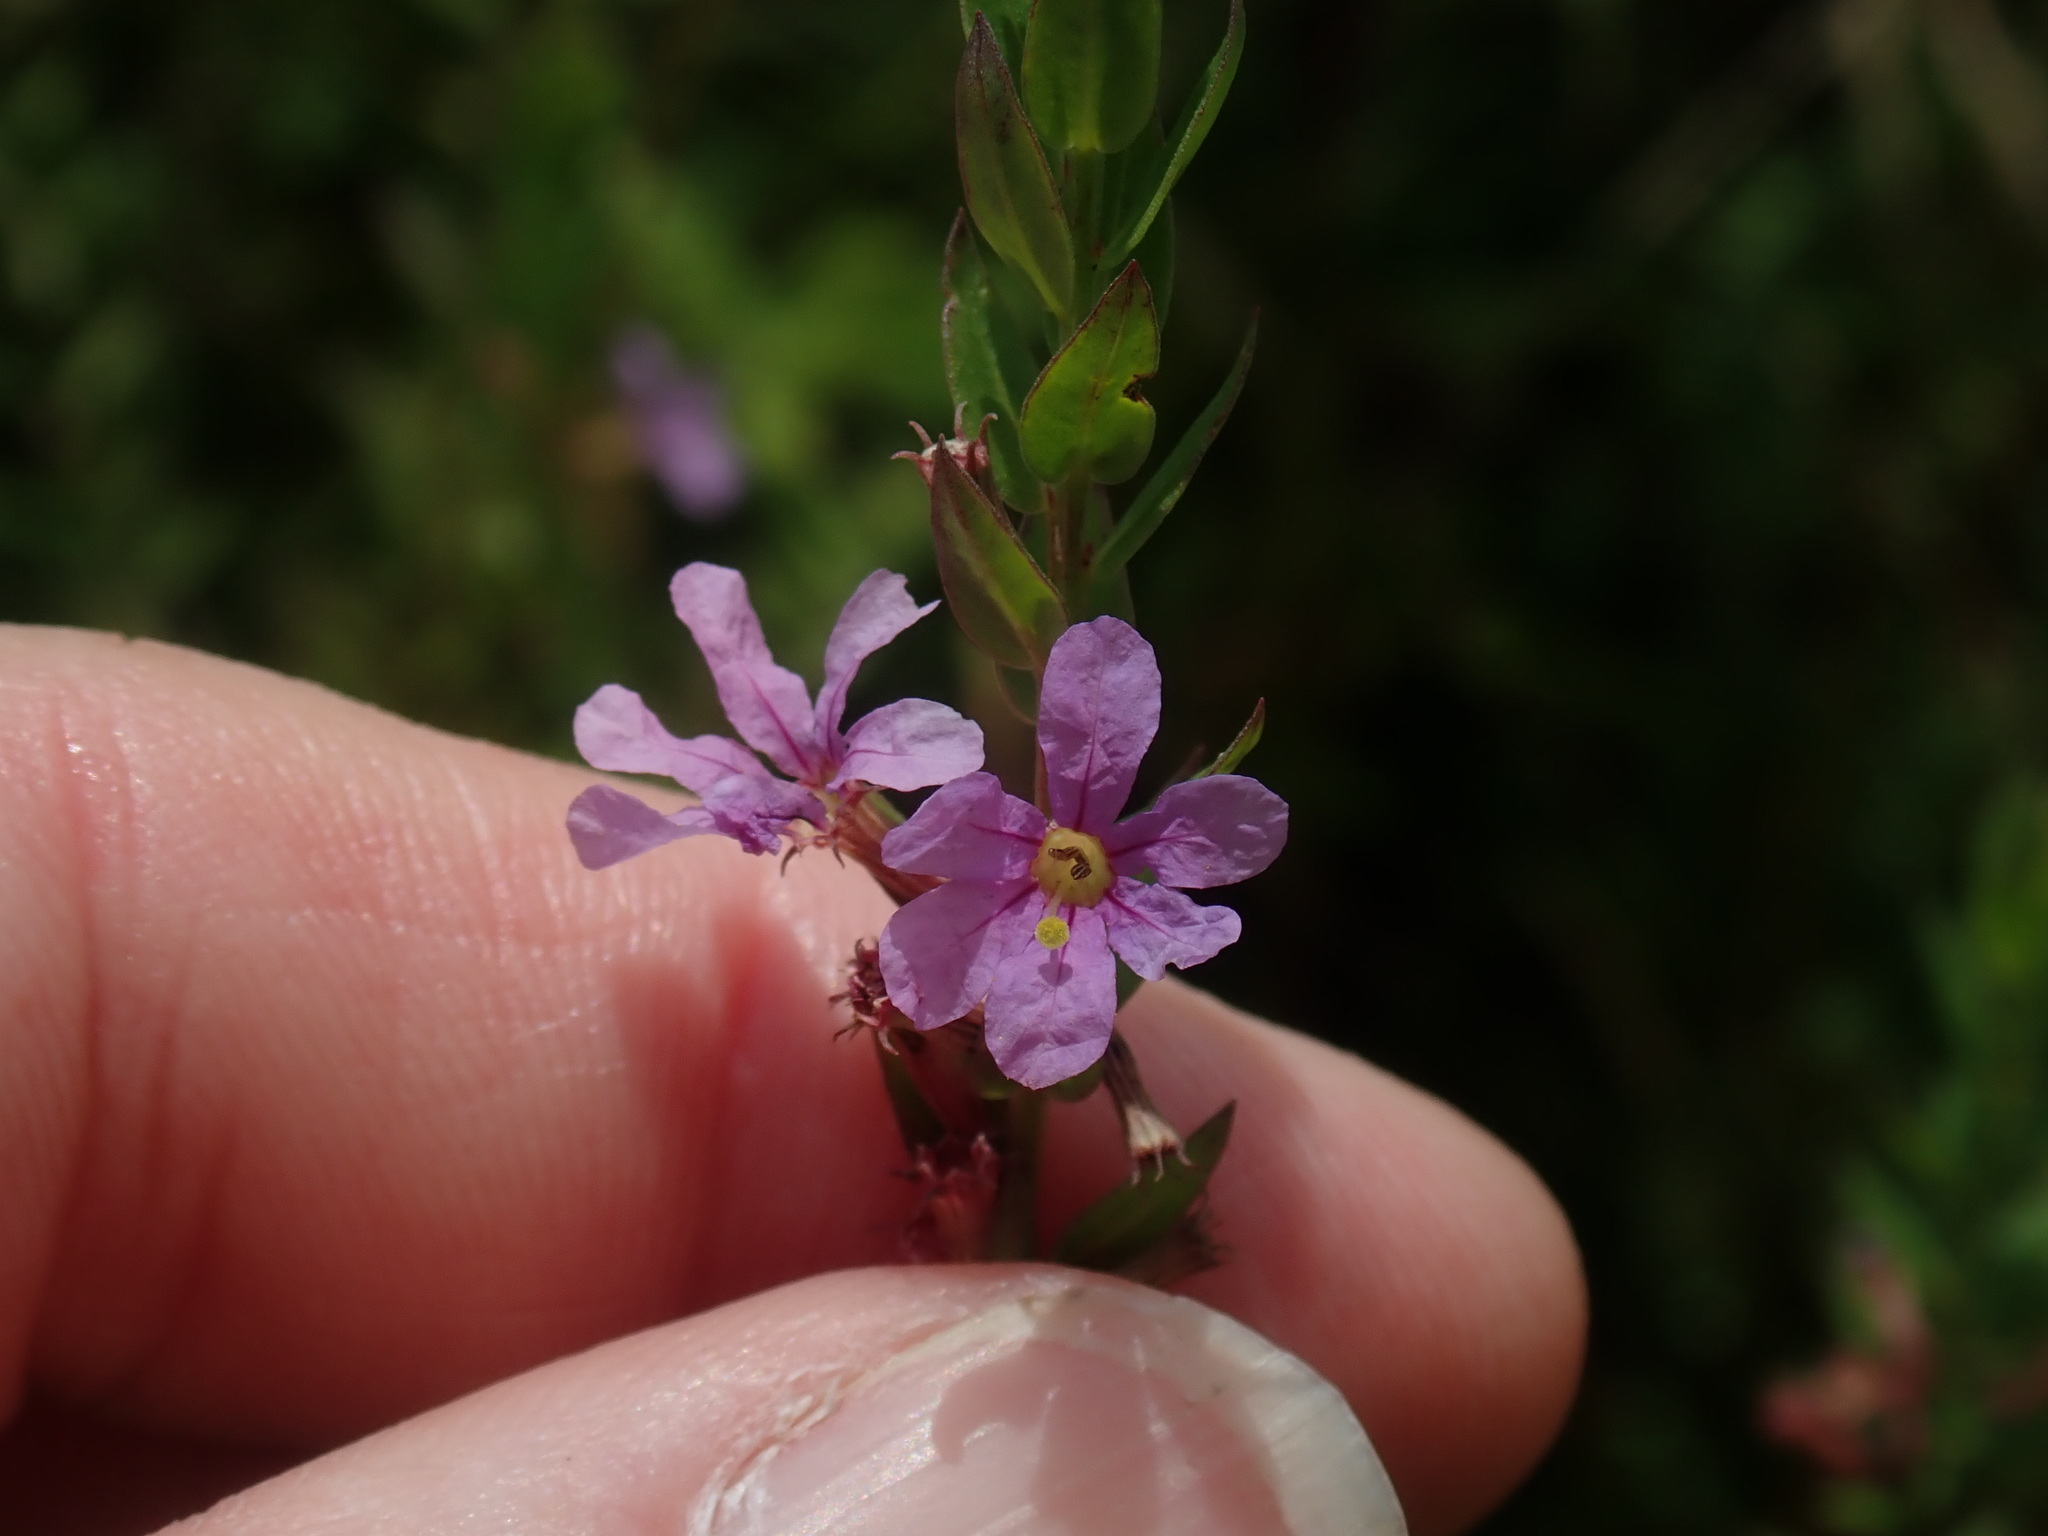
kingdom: Plantae
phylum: Tracheophyta
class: Magnoliopsida
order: Myrtales
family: Lythraceae
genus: Lythrum
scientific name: Lythrum alatum
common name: Winged loosestrife
